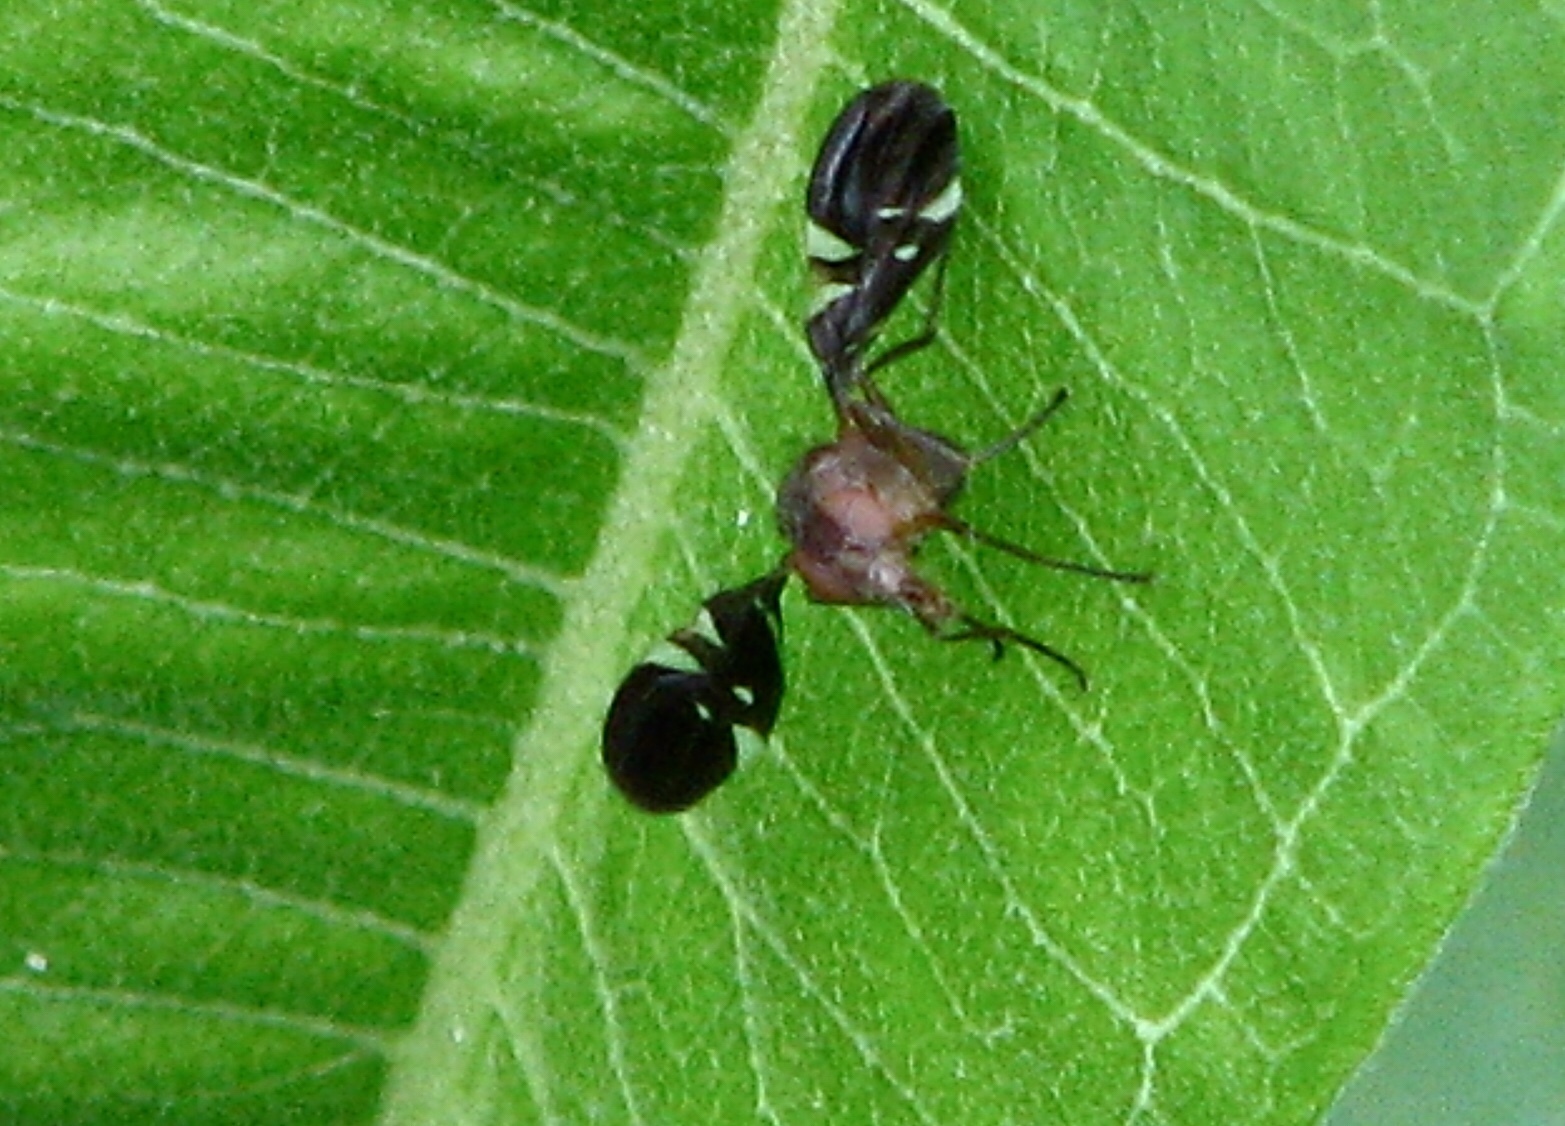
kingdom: Animalia
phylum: Arthropoda
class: Insecta
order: Diptera
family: Ulidiidae
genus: Delphinia
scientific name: Delphinia picta
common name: Common picture-winged fly
